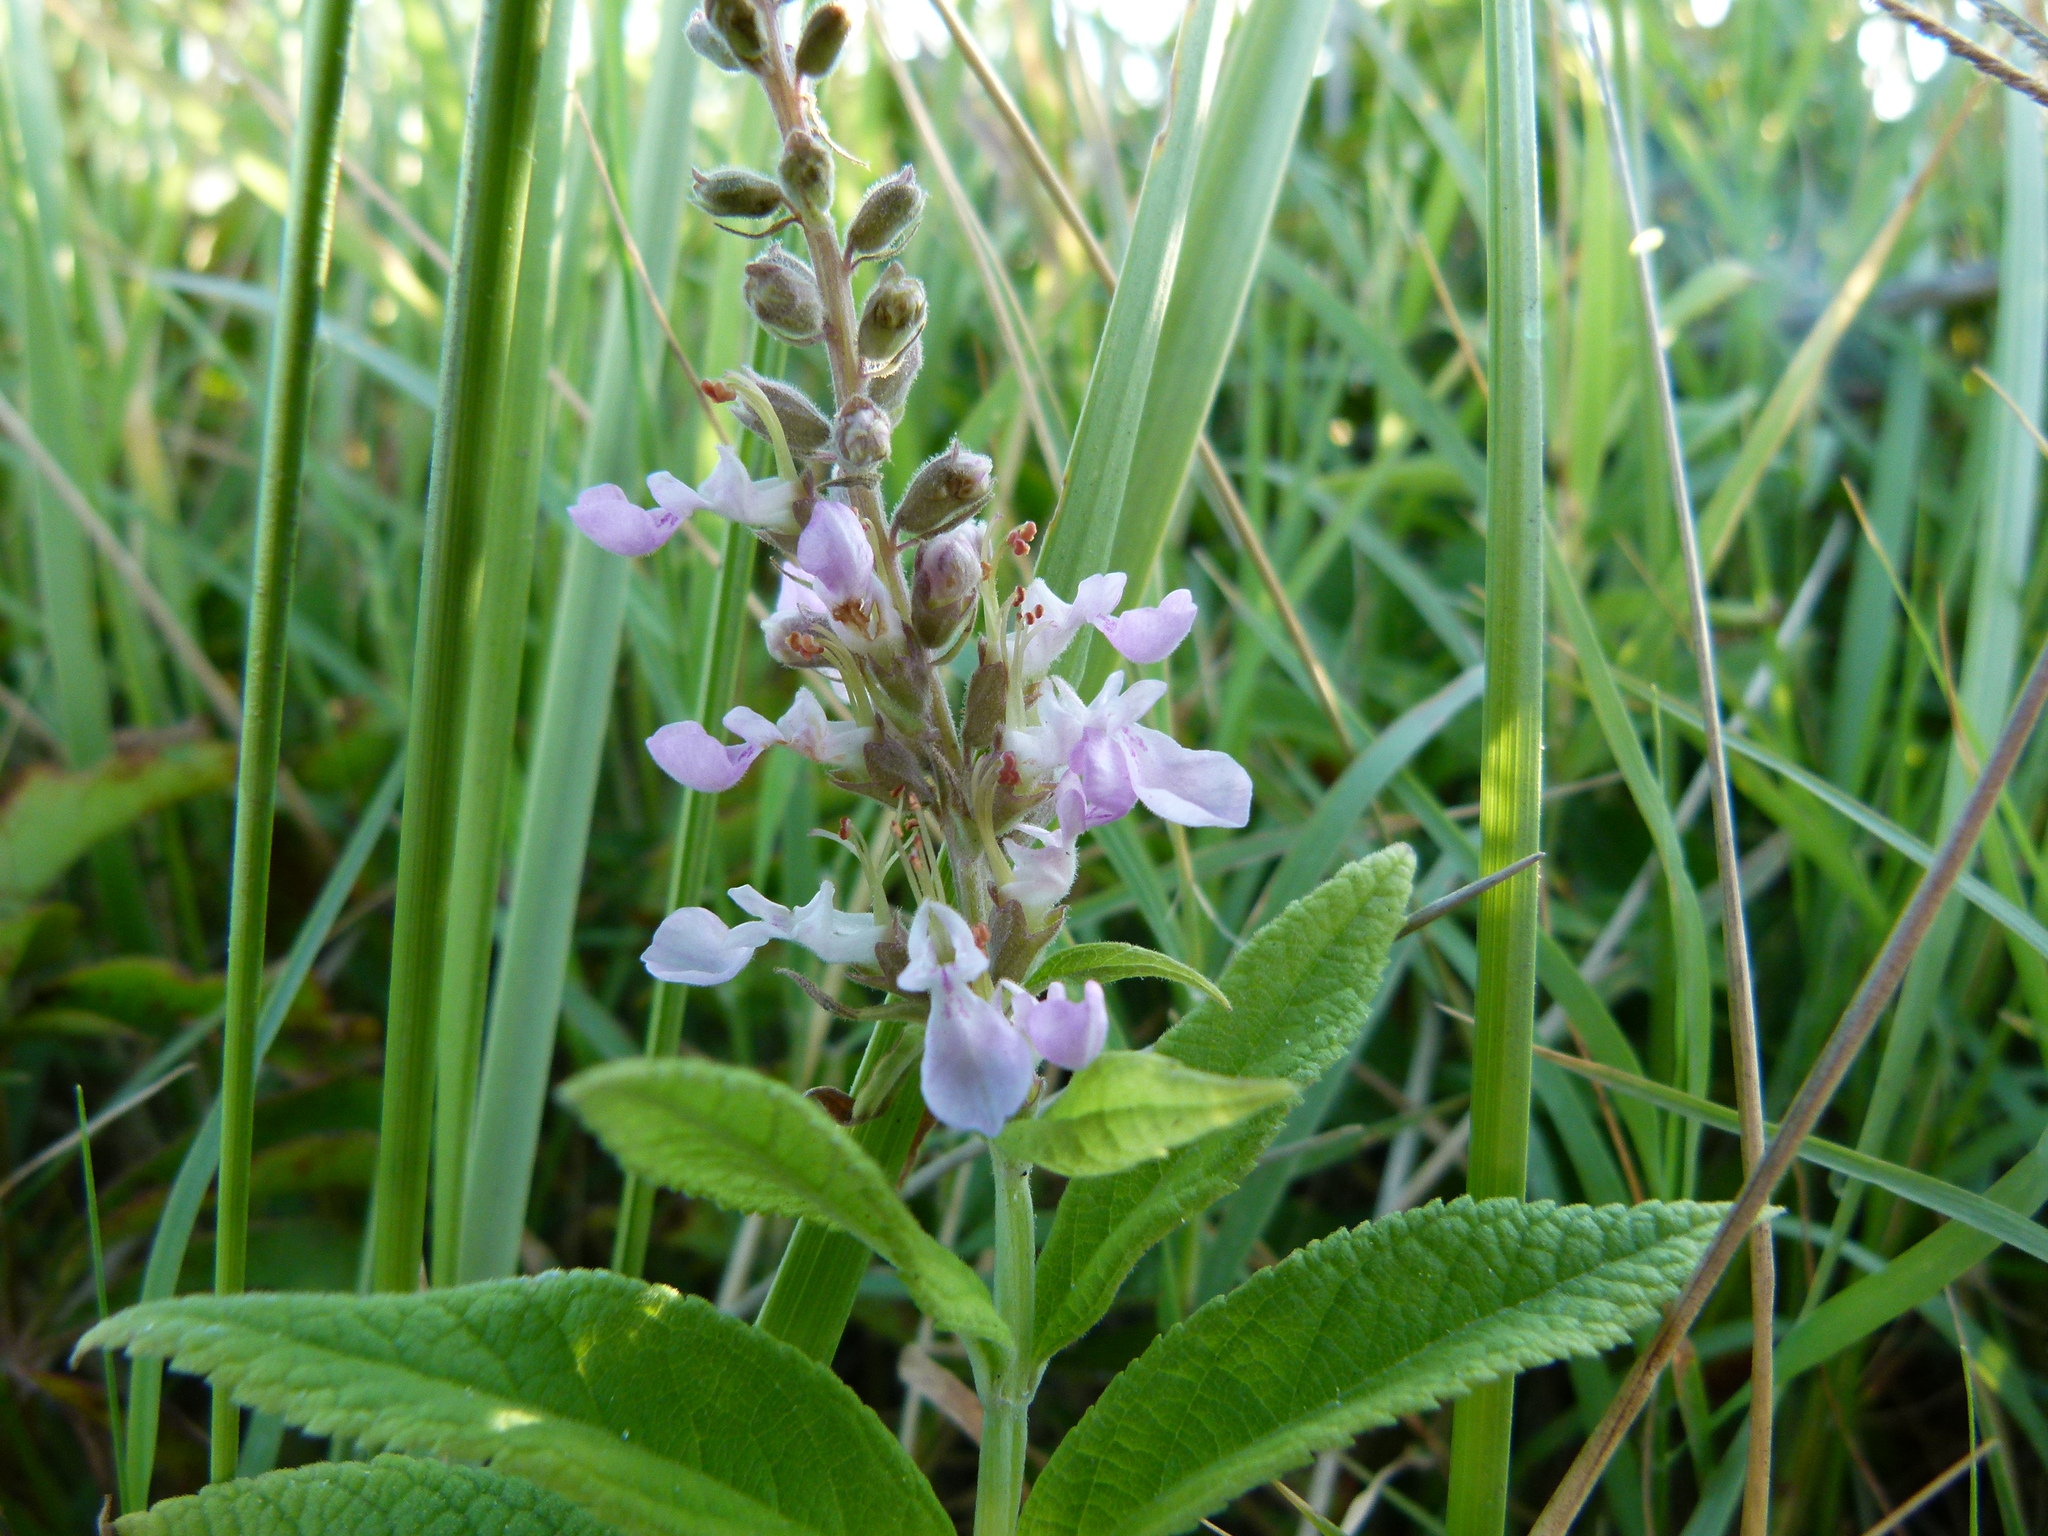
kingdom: Plantae
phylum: Tracheophyta
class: Magnoliopsida
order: Lamiales
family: Lamiaceae
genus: Teucrium
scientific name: Teucrium canadense
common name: American germander
